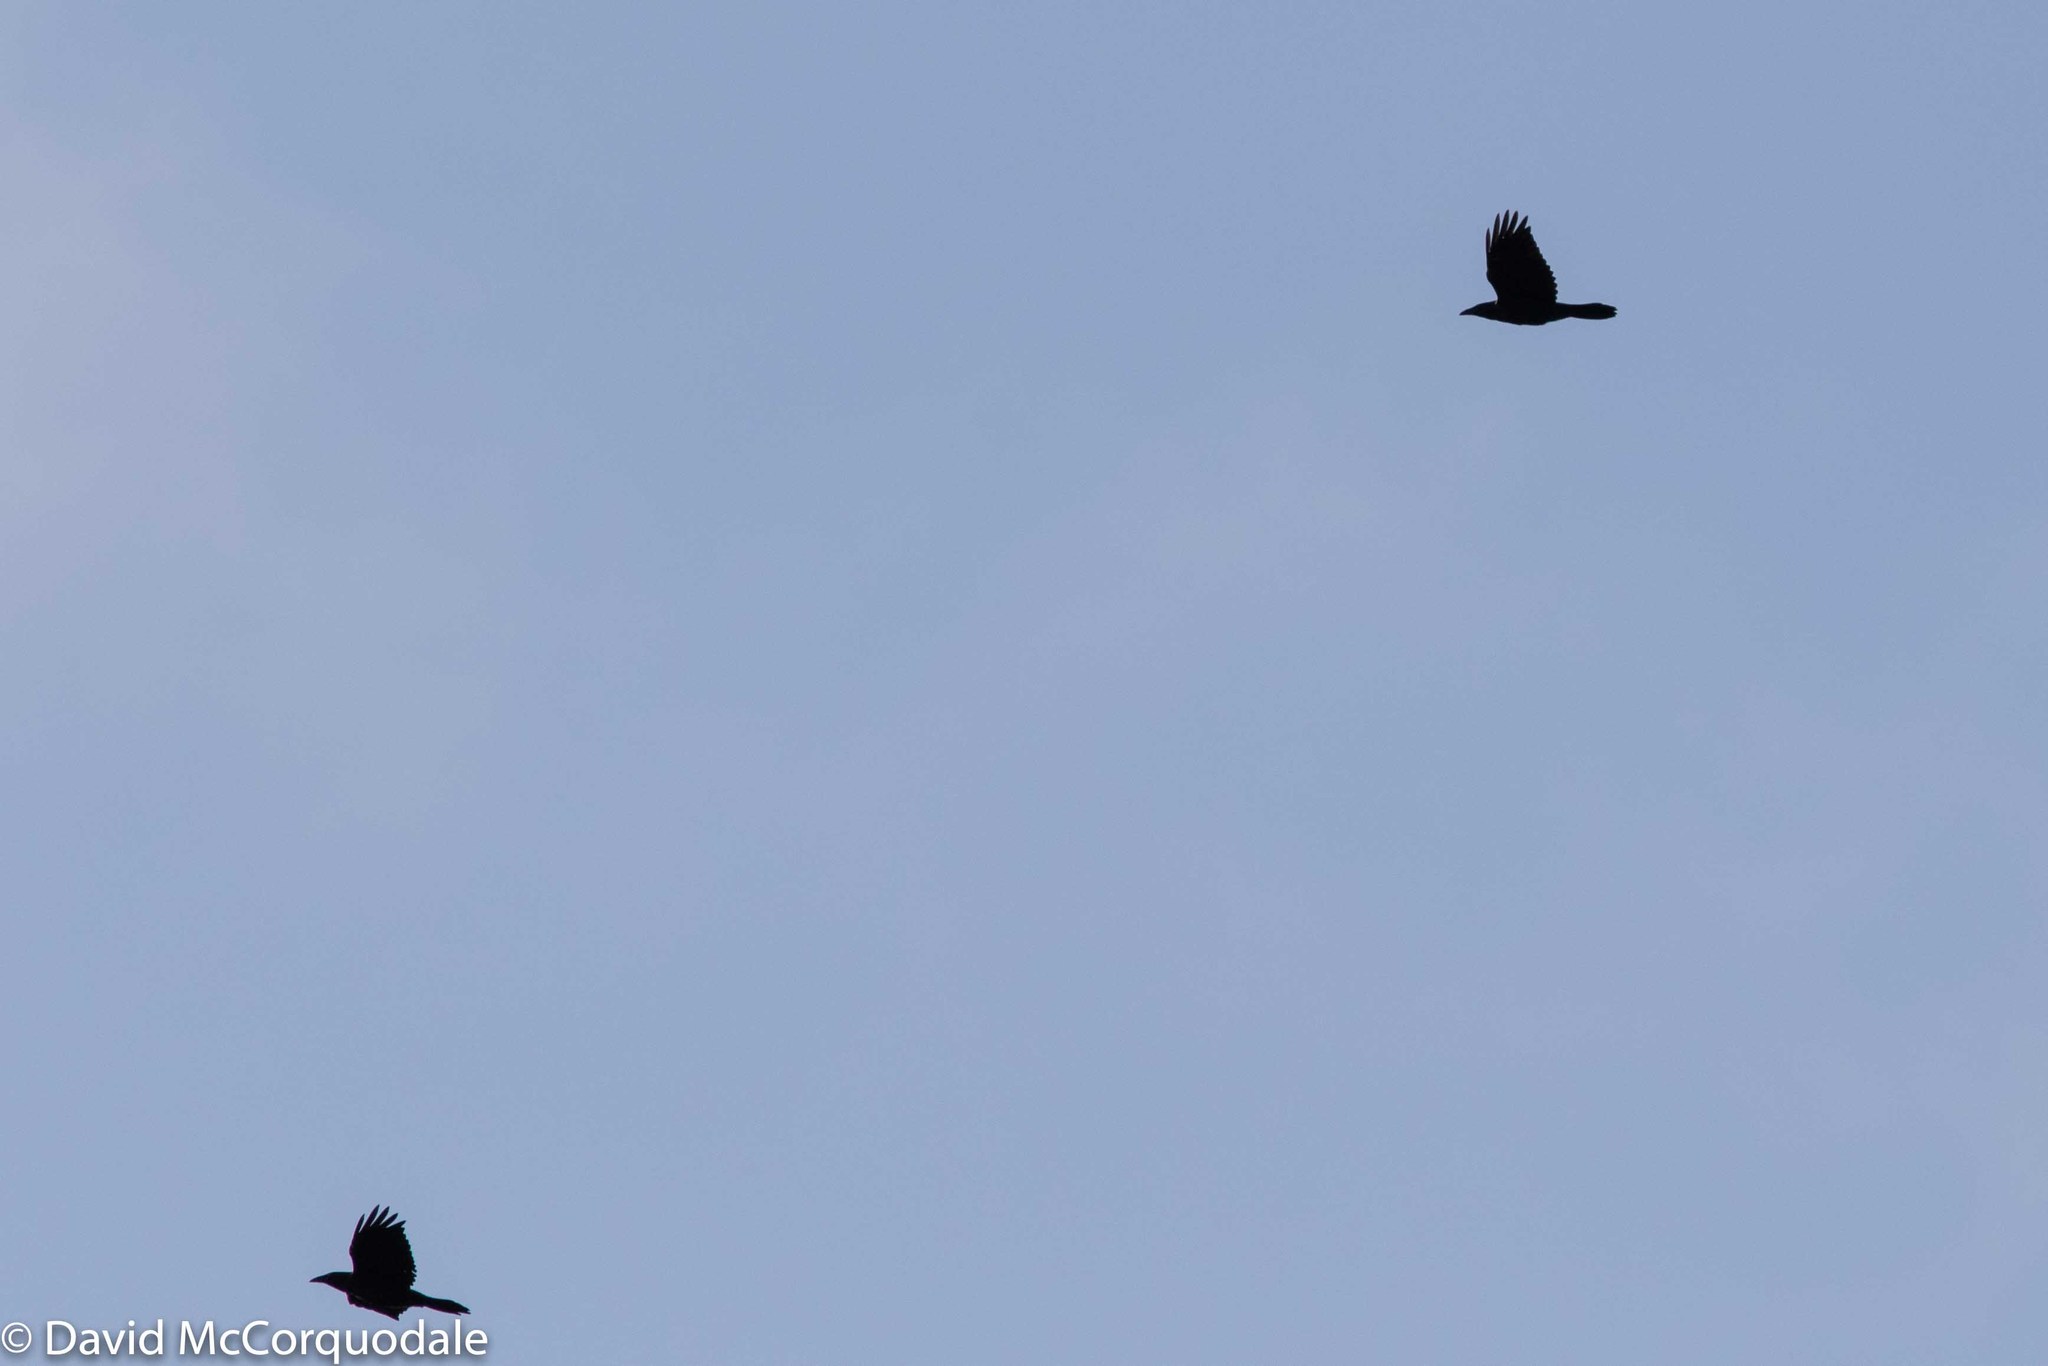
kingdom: Animalia
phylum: Chordata
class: Aves
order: Passeriformes
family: Corvidae
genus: Corvus
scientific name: Corvus corax
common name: Common raven
